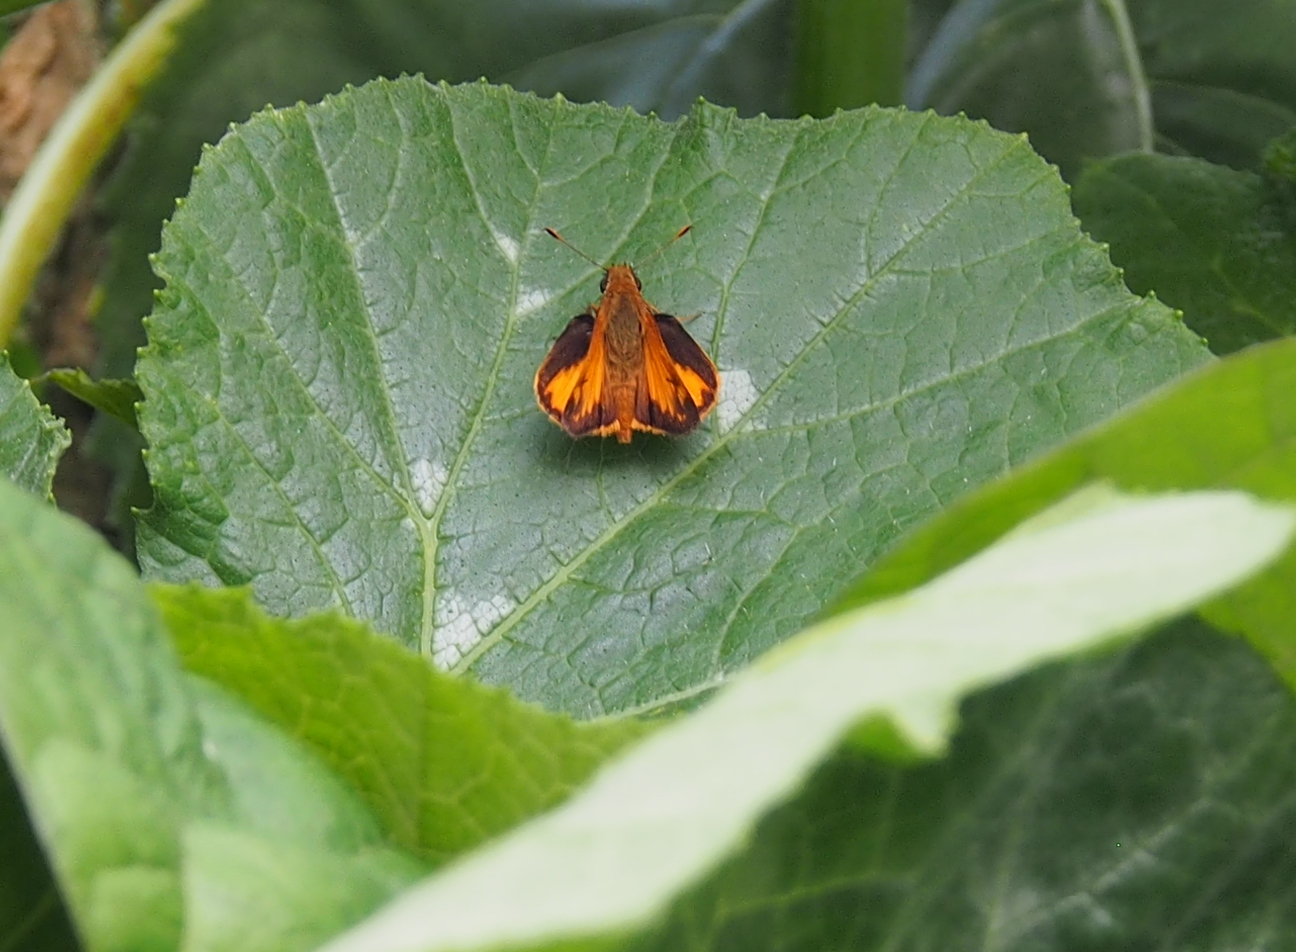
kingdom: Animalia
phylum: Arthropoda
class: Insecta
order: Lepidoptera
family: Hesperiidae
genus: Lon
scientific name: Lon zabulon
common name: Zabulon skipper
